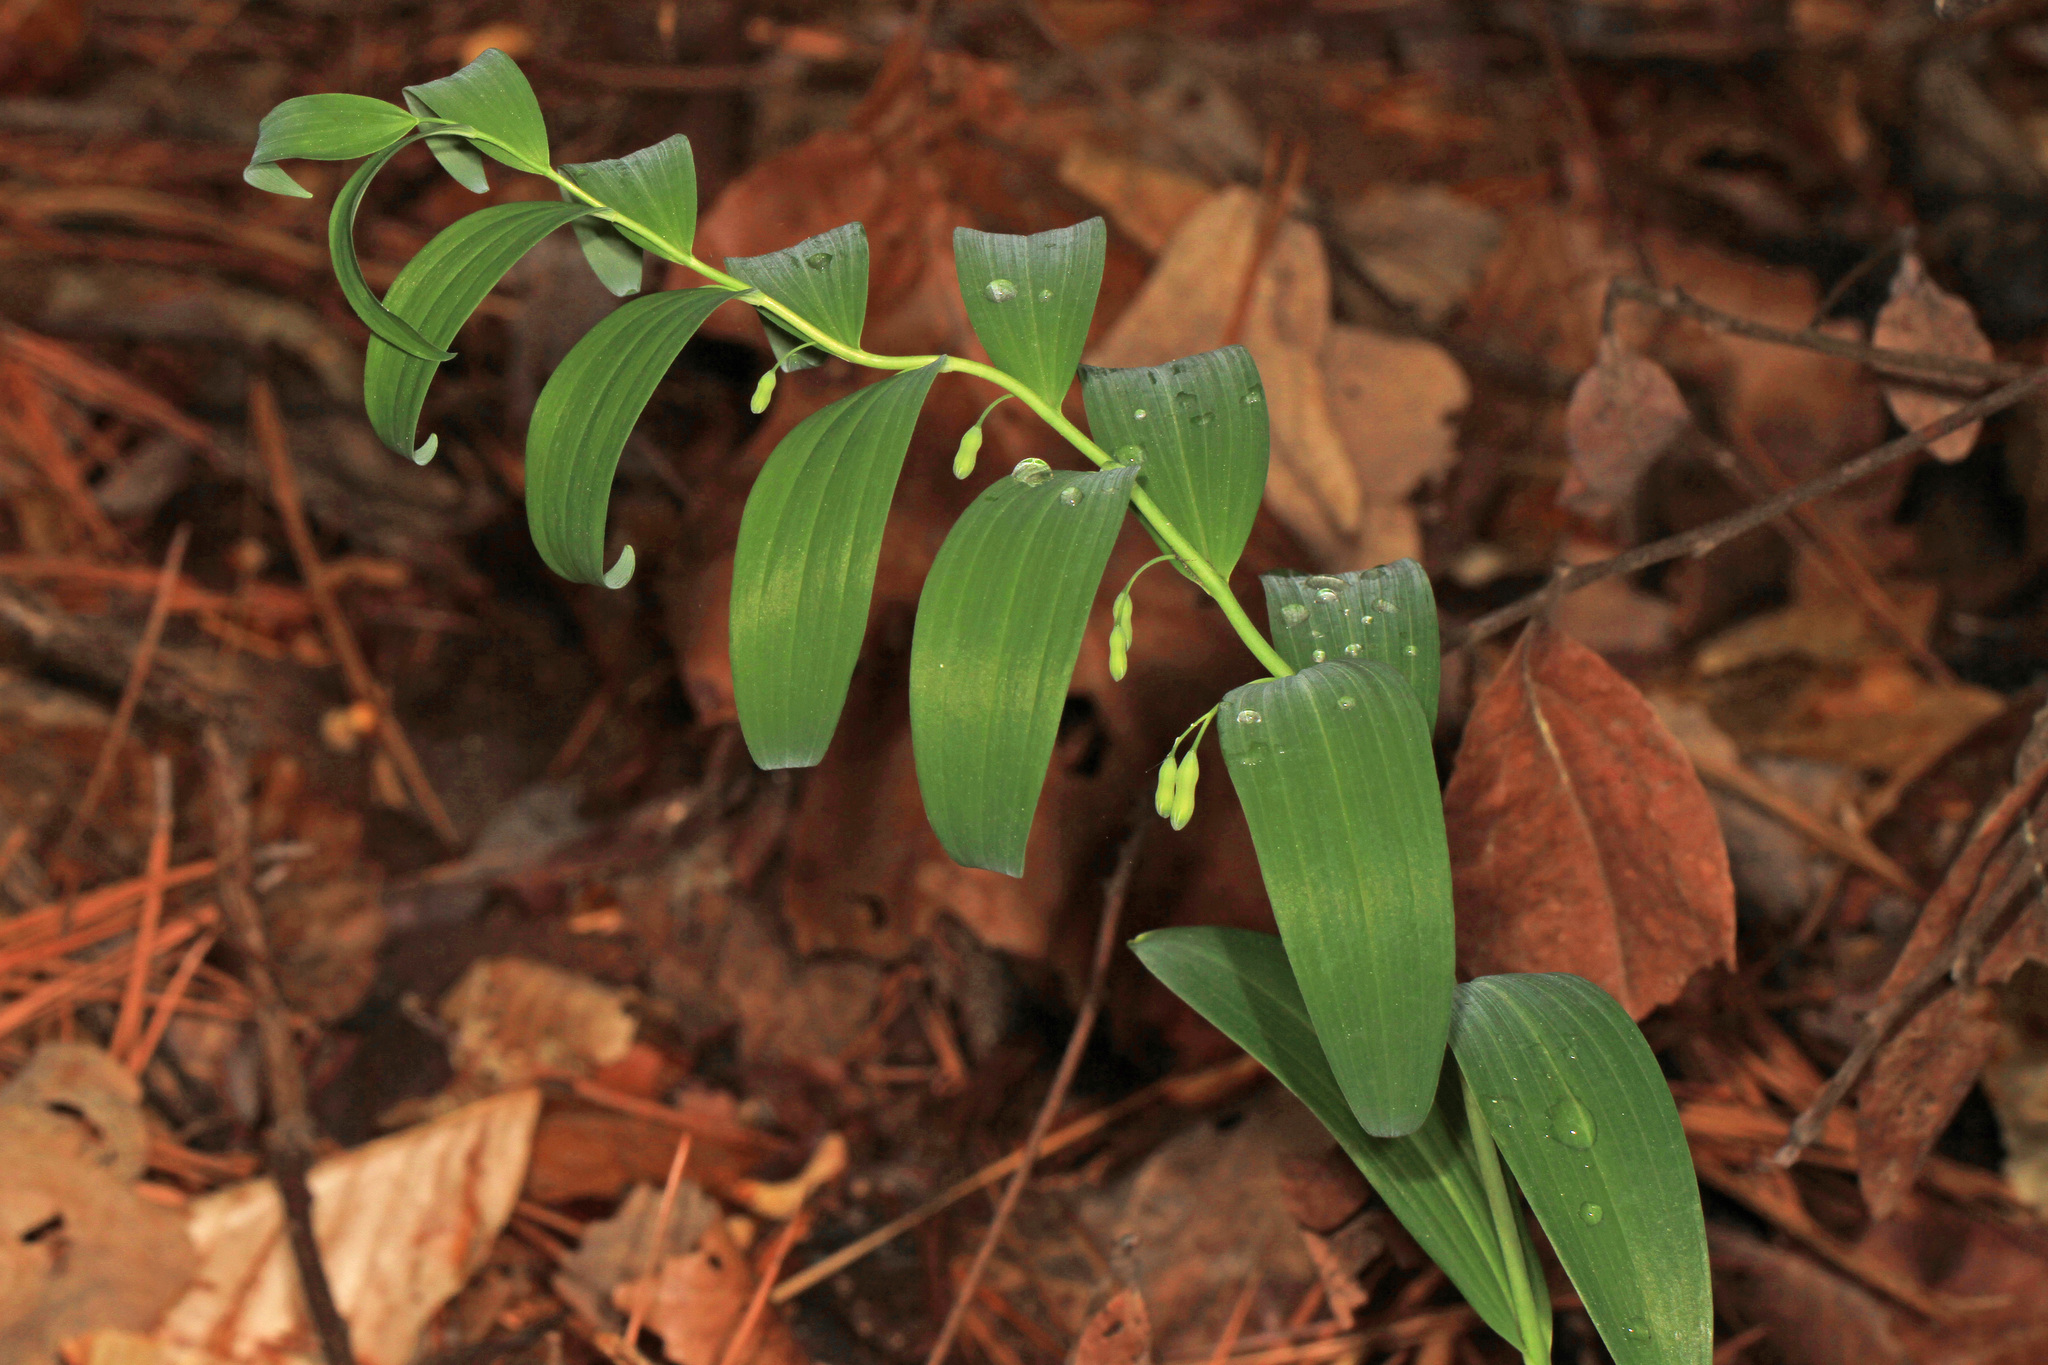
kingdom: Plantae
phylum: Tracheophyta
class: Liliopsida
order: Asparagales
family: Asparagaceae
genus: Polygonatum
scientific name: Polygonatum biflorum
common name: American solomon's-seal
